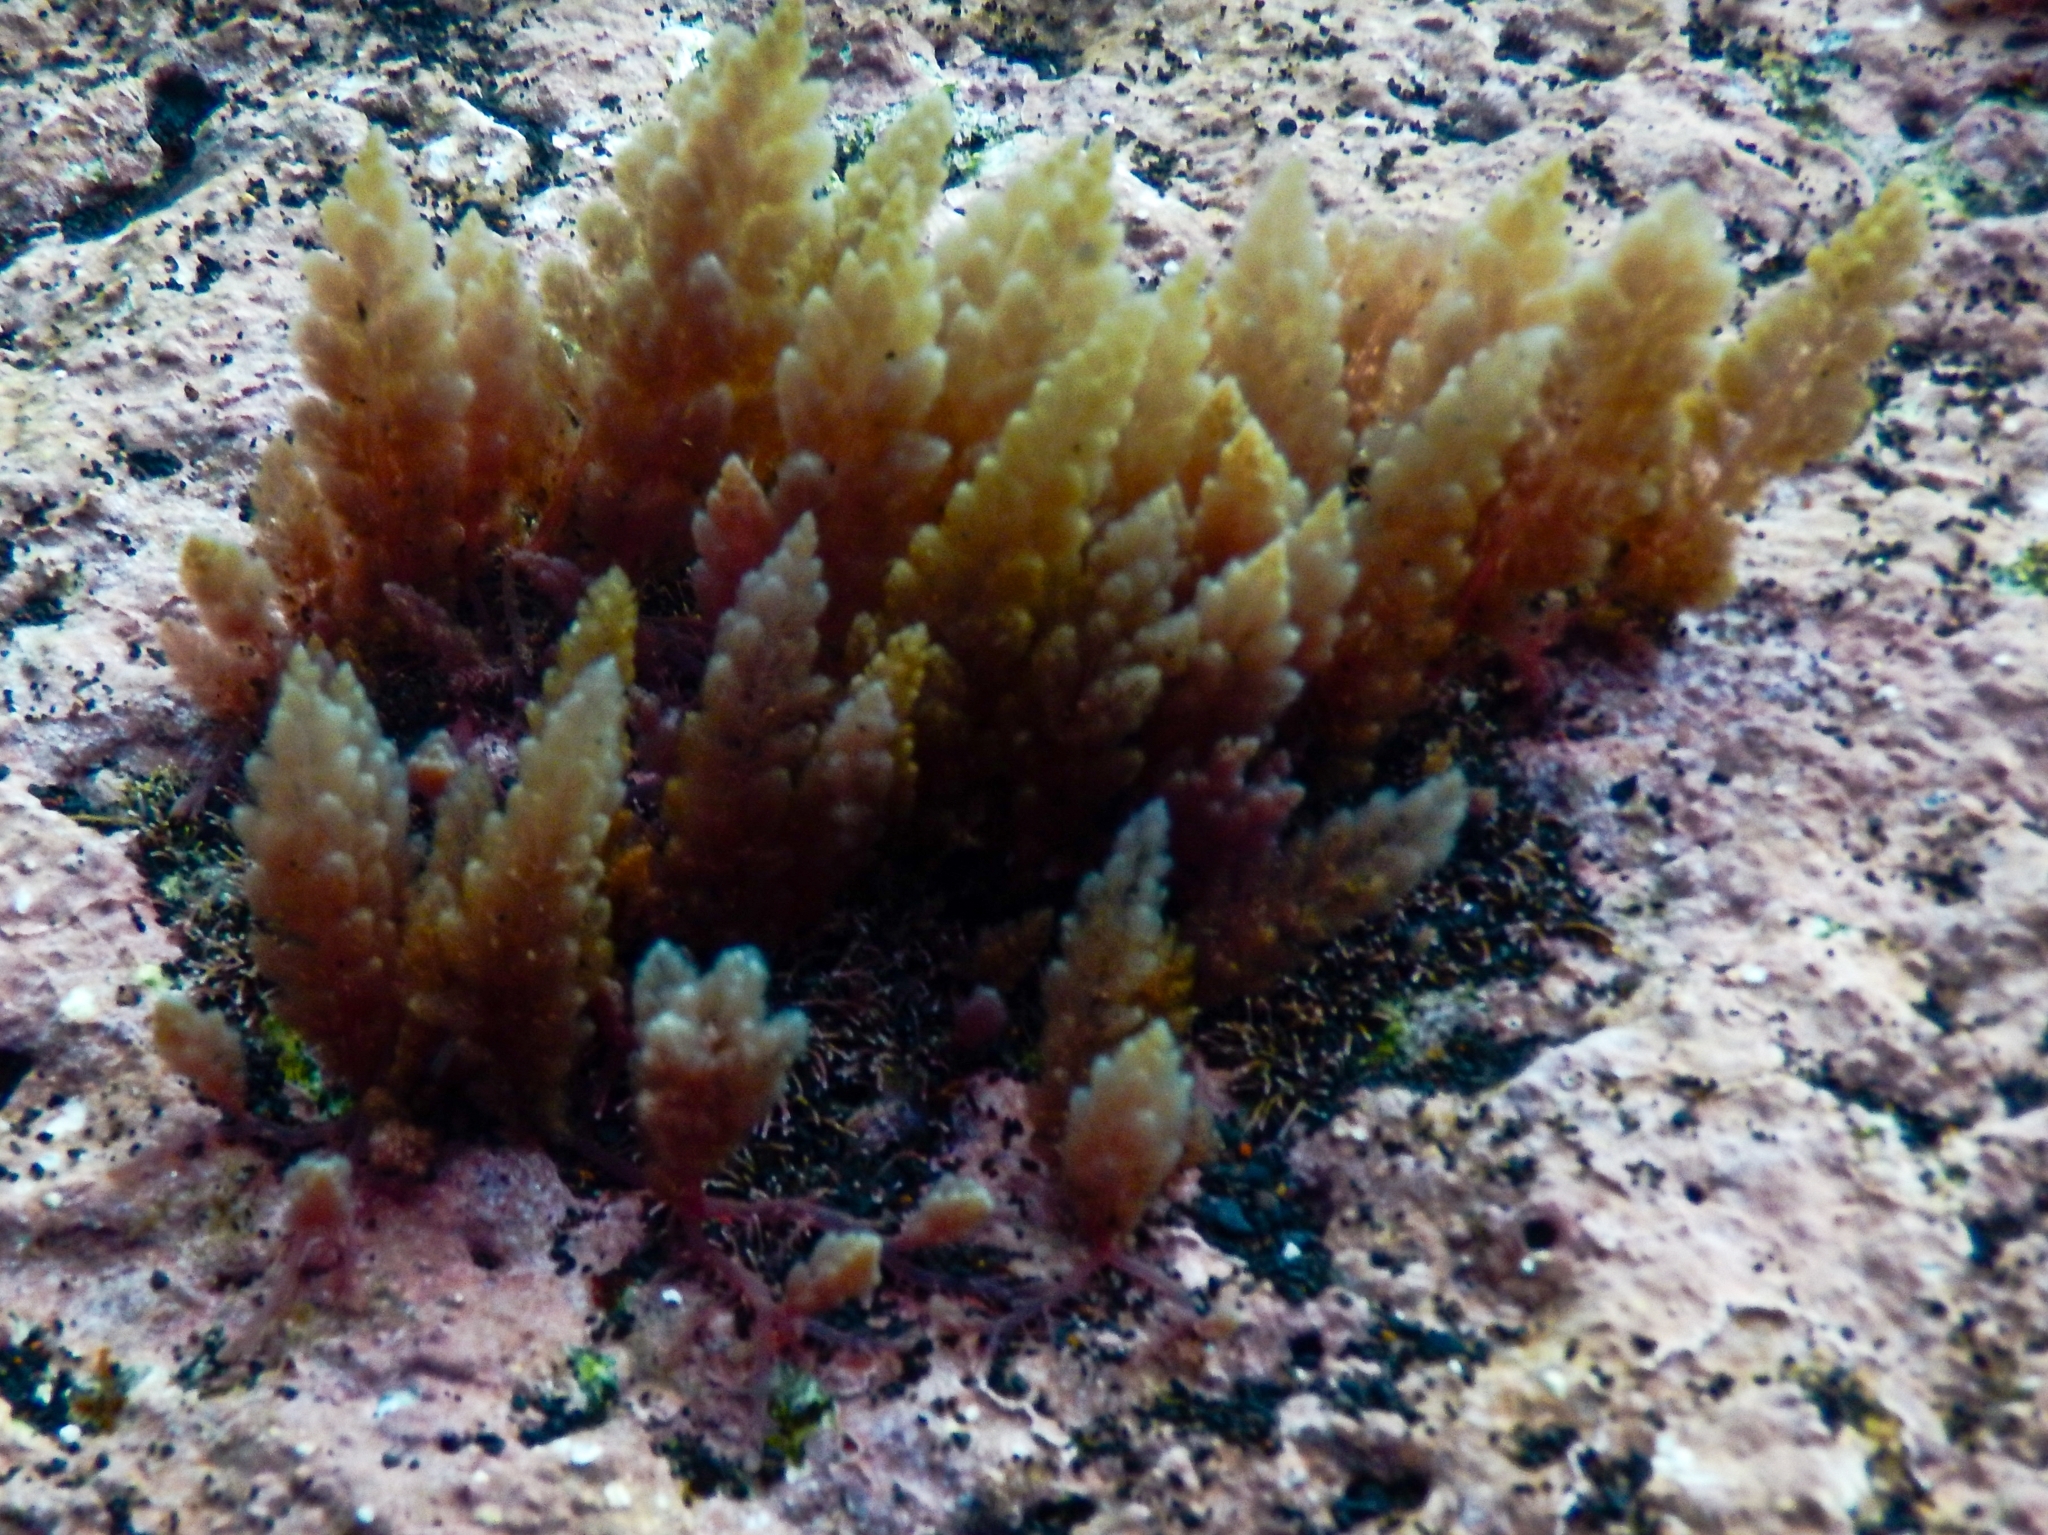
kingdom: Plantae
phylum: Rhodophyta
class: Florideophyceae
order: Bonnemaisoniales
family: Bonnemaisoniaceae
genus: Asparagopsis
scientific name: Asparagopsis taxiformis
